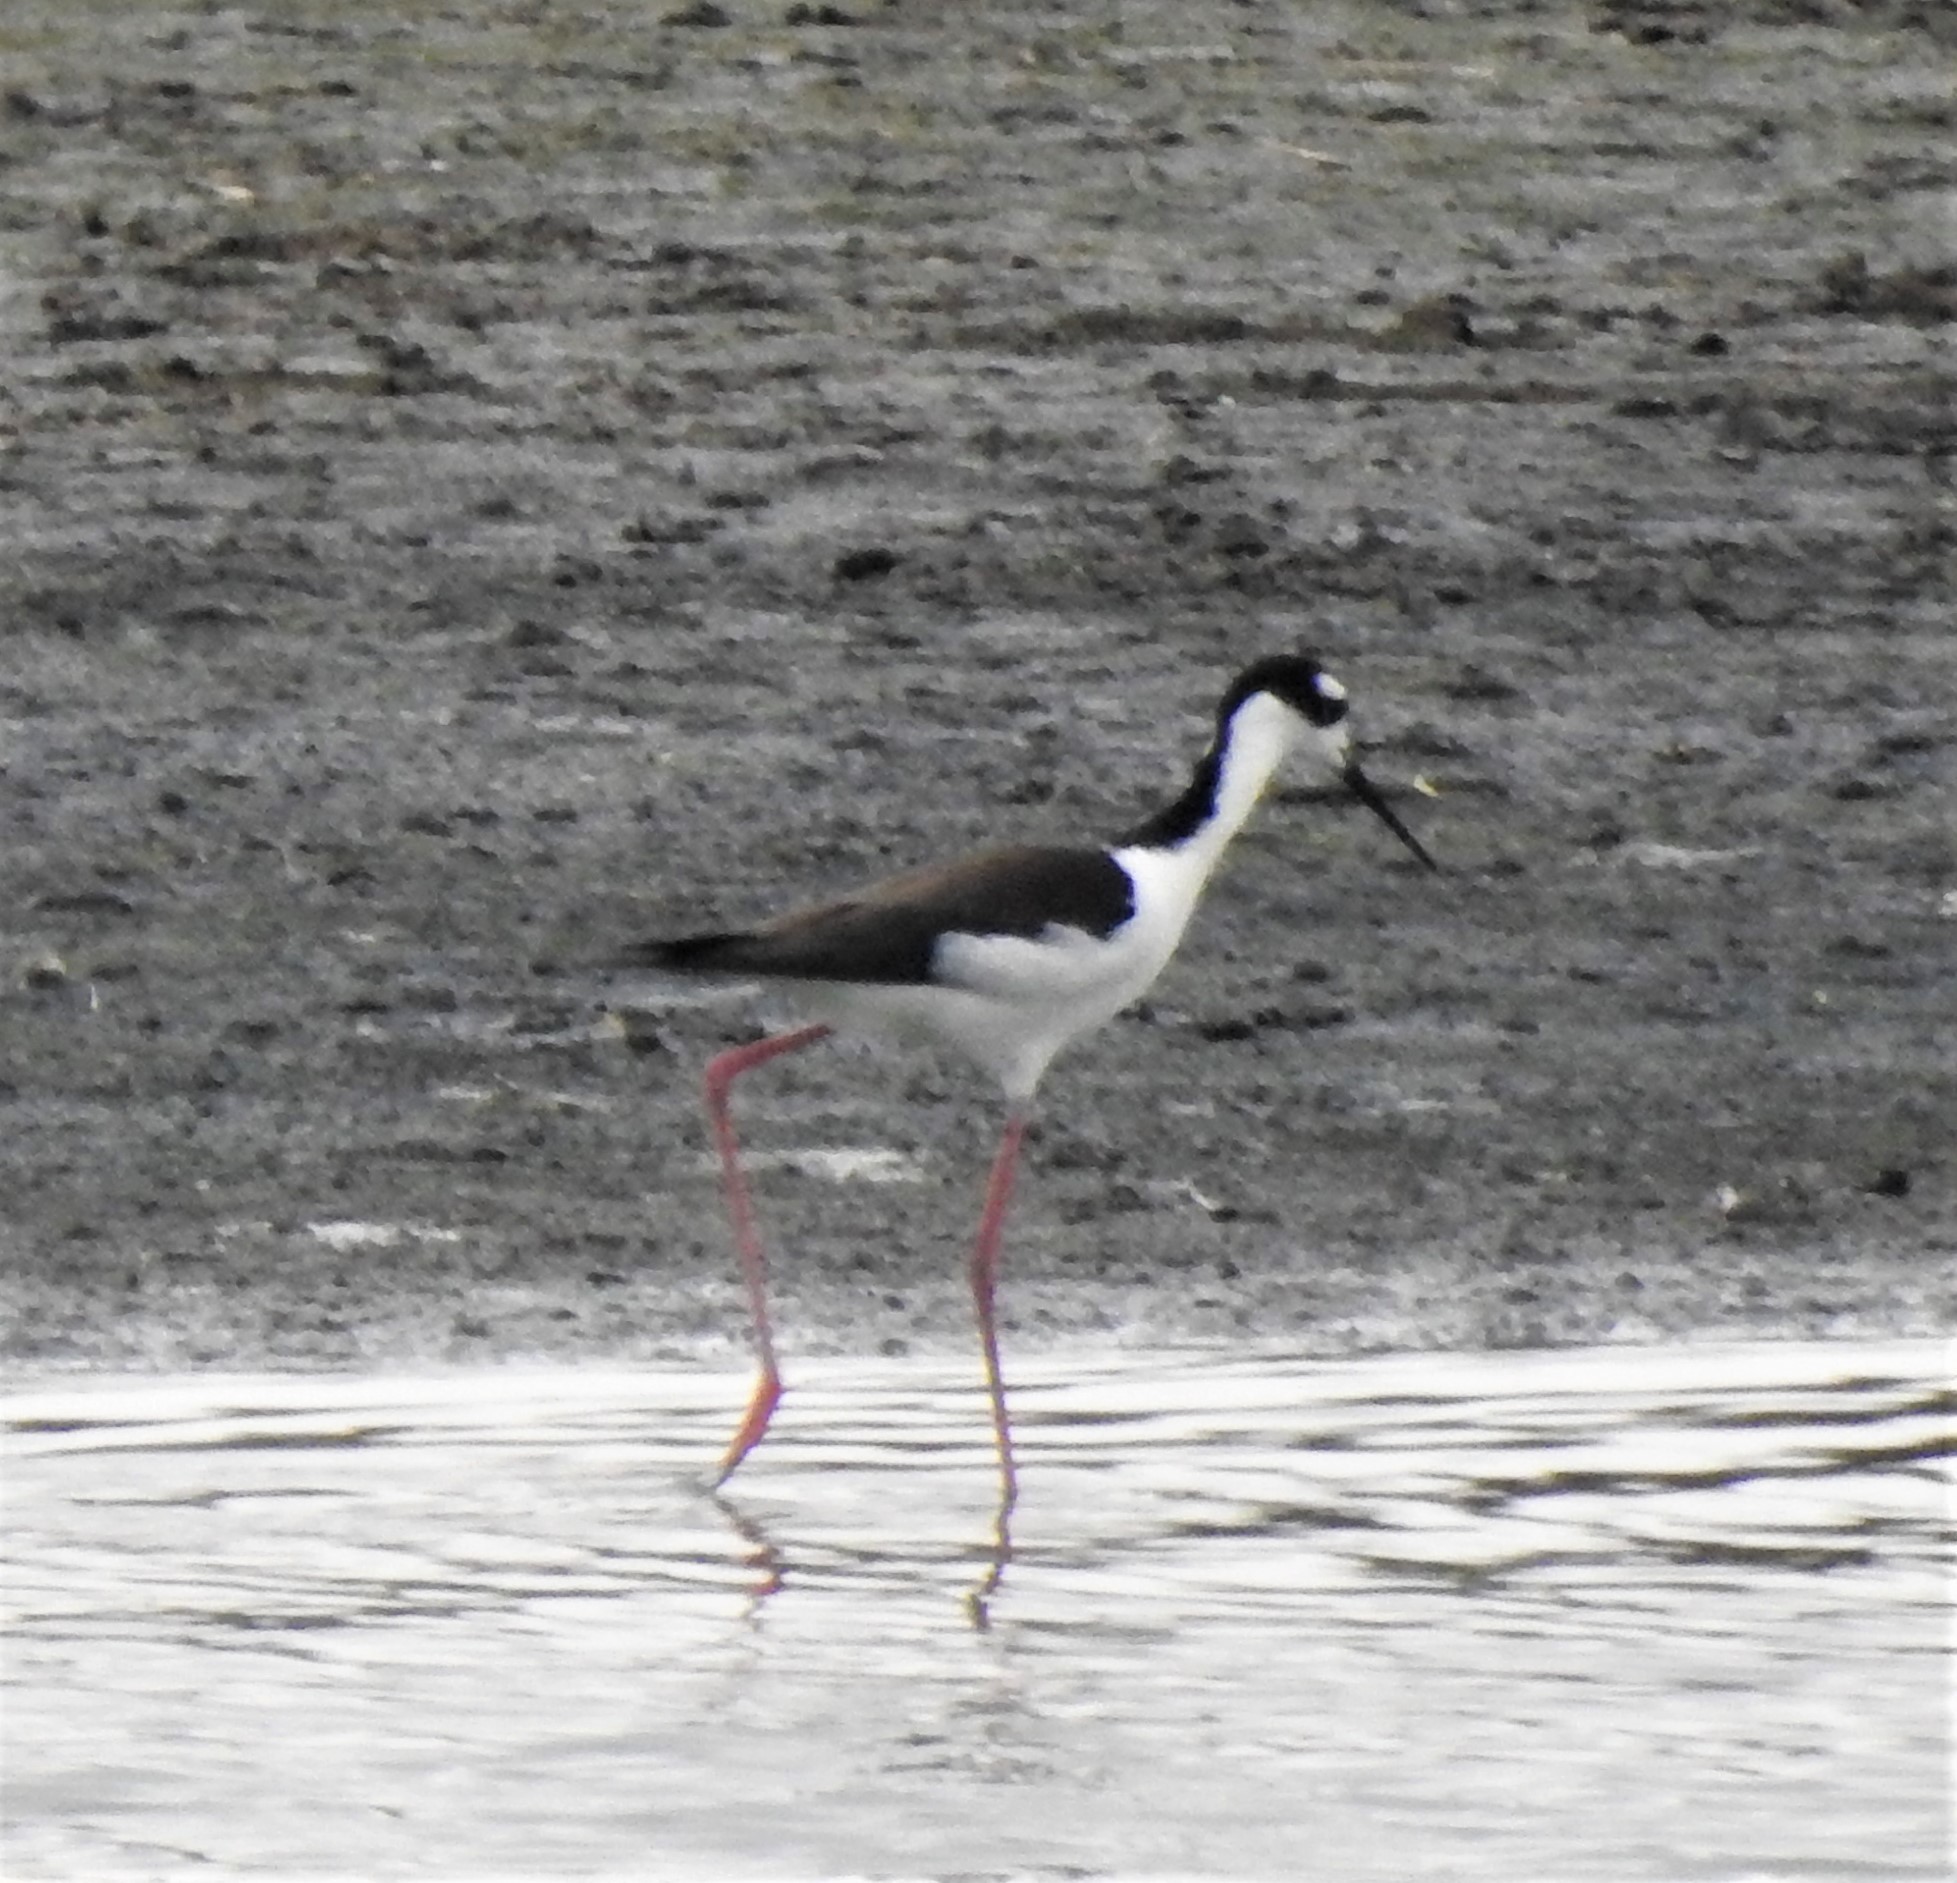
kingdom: Animalia
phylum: Chordata
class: Aves
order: Charadriiformes
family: Recurvirostridae
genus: Himantopus
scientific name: Himantopus mexicanus
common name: Black-necked stilt
